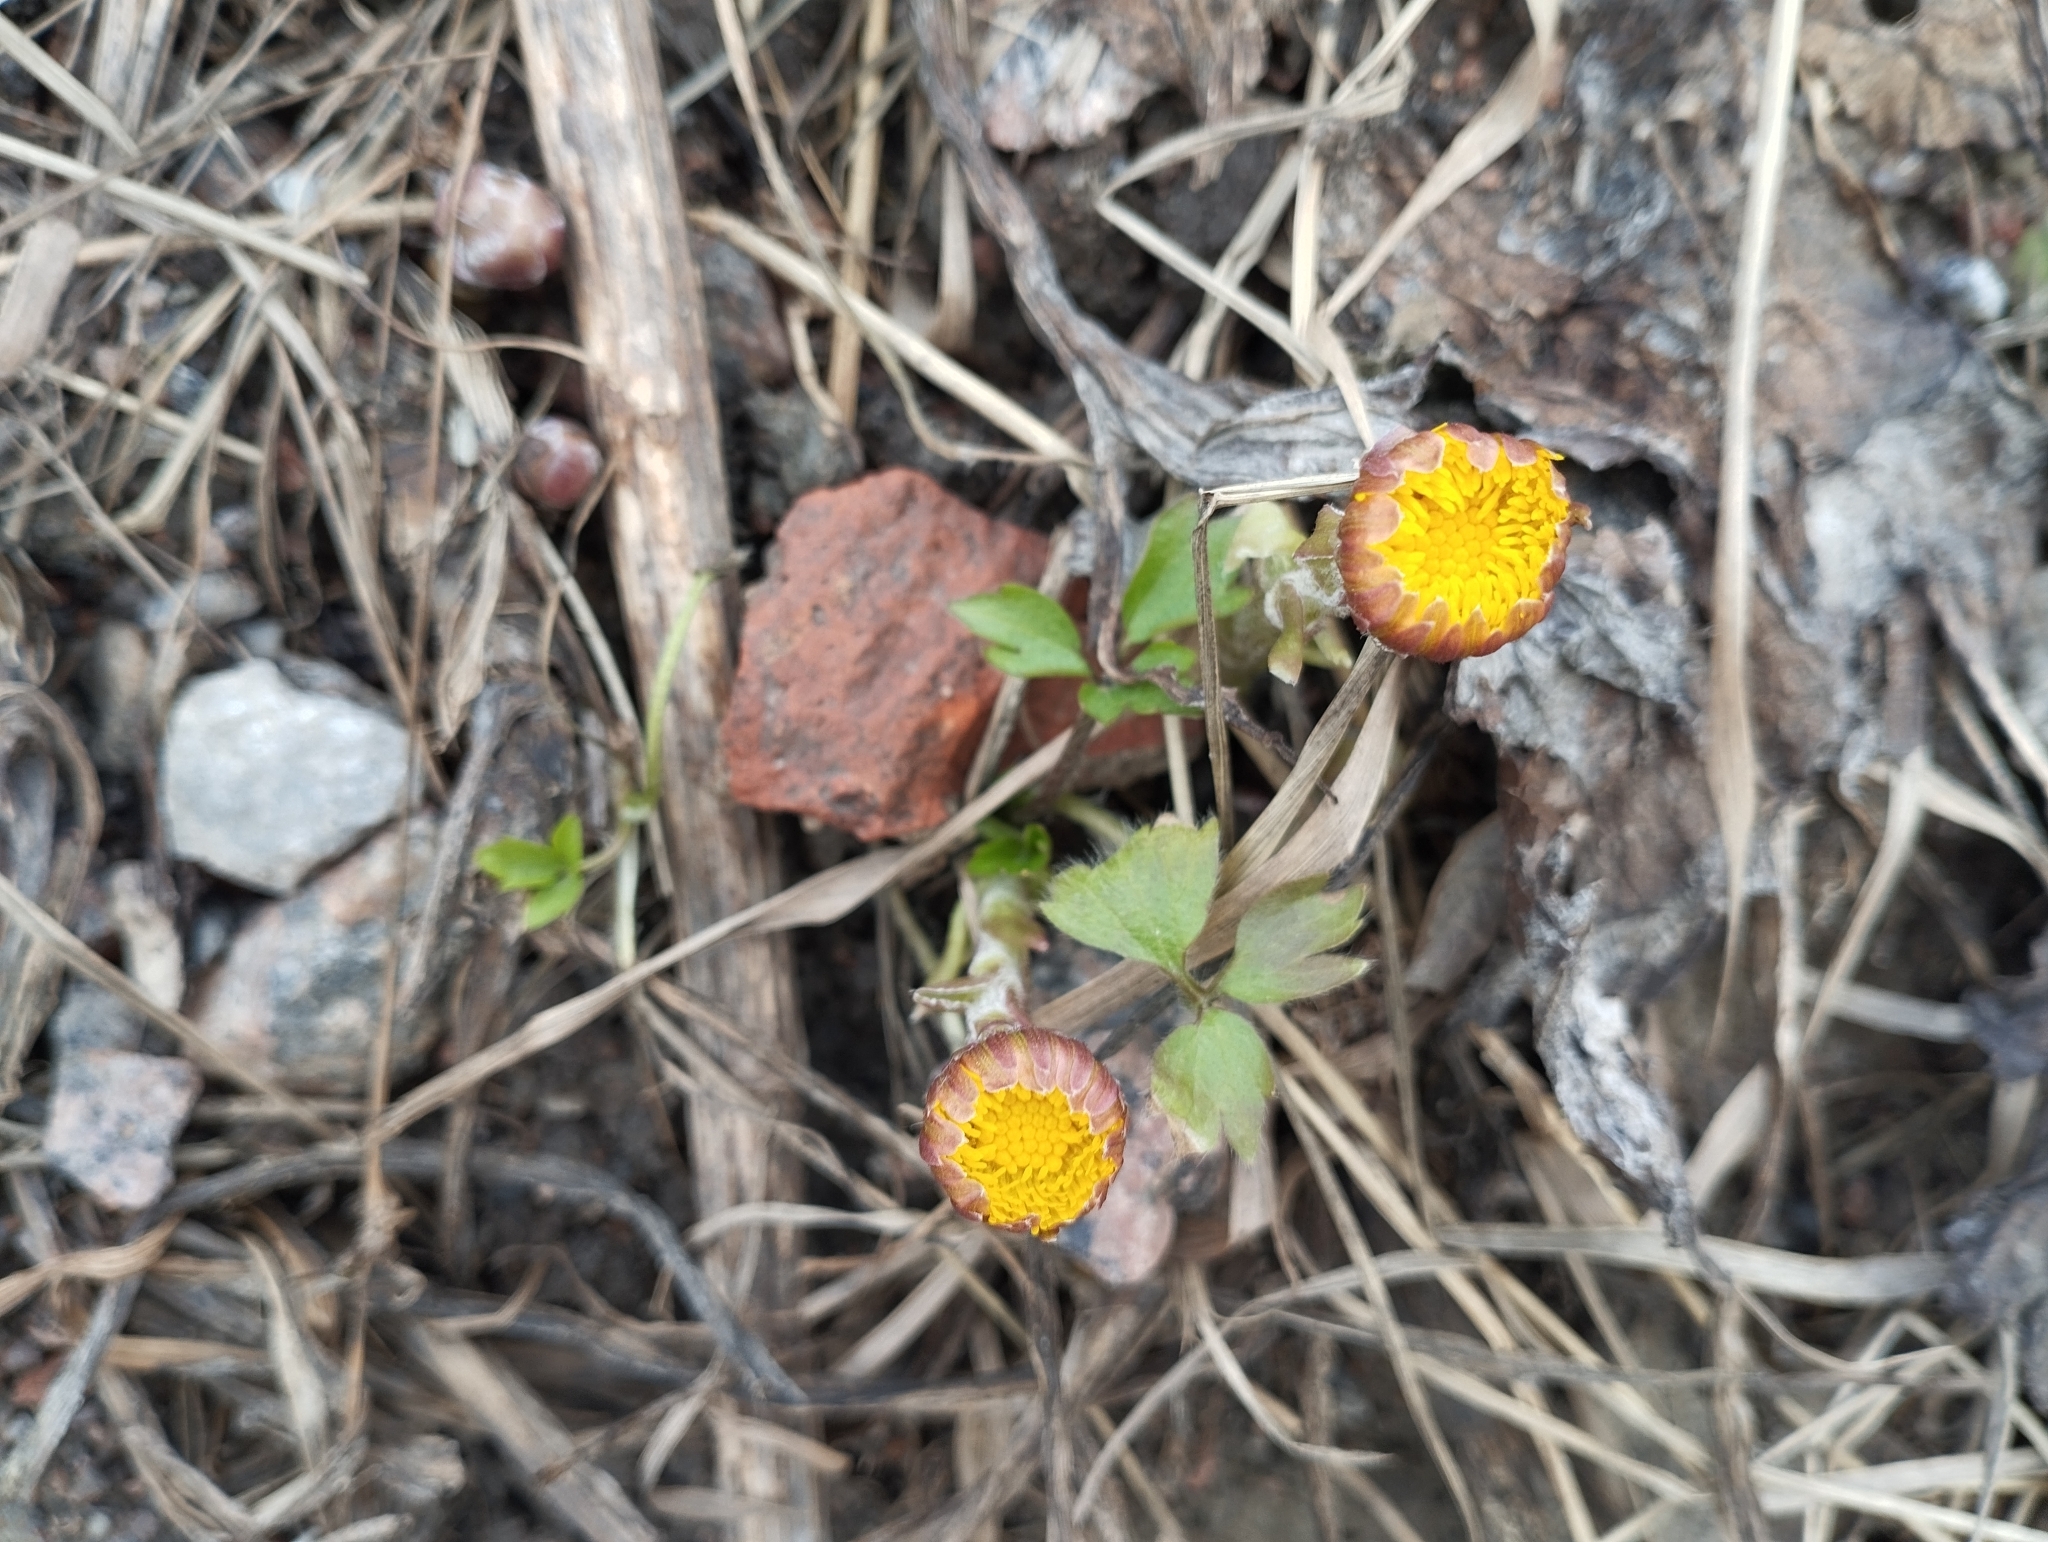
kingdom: Plantae
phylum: Tracheophyta
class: Magnoliopsida
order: Asterales
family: Asteraceae
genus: Tussilago
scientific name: Tussilago farfara
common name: Coltsfoot
